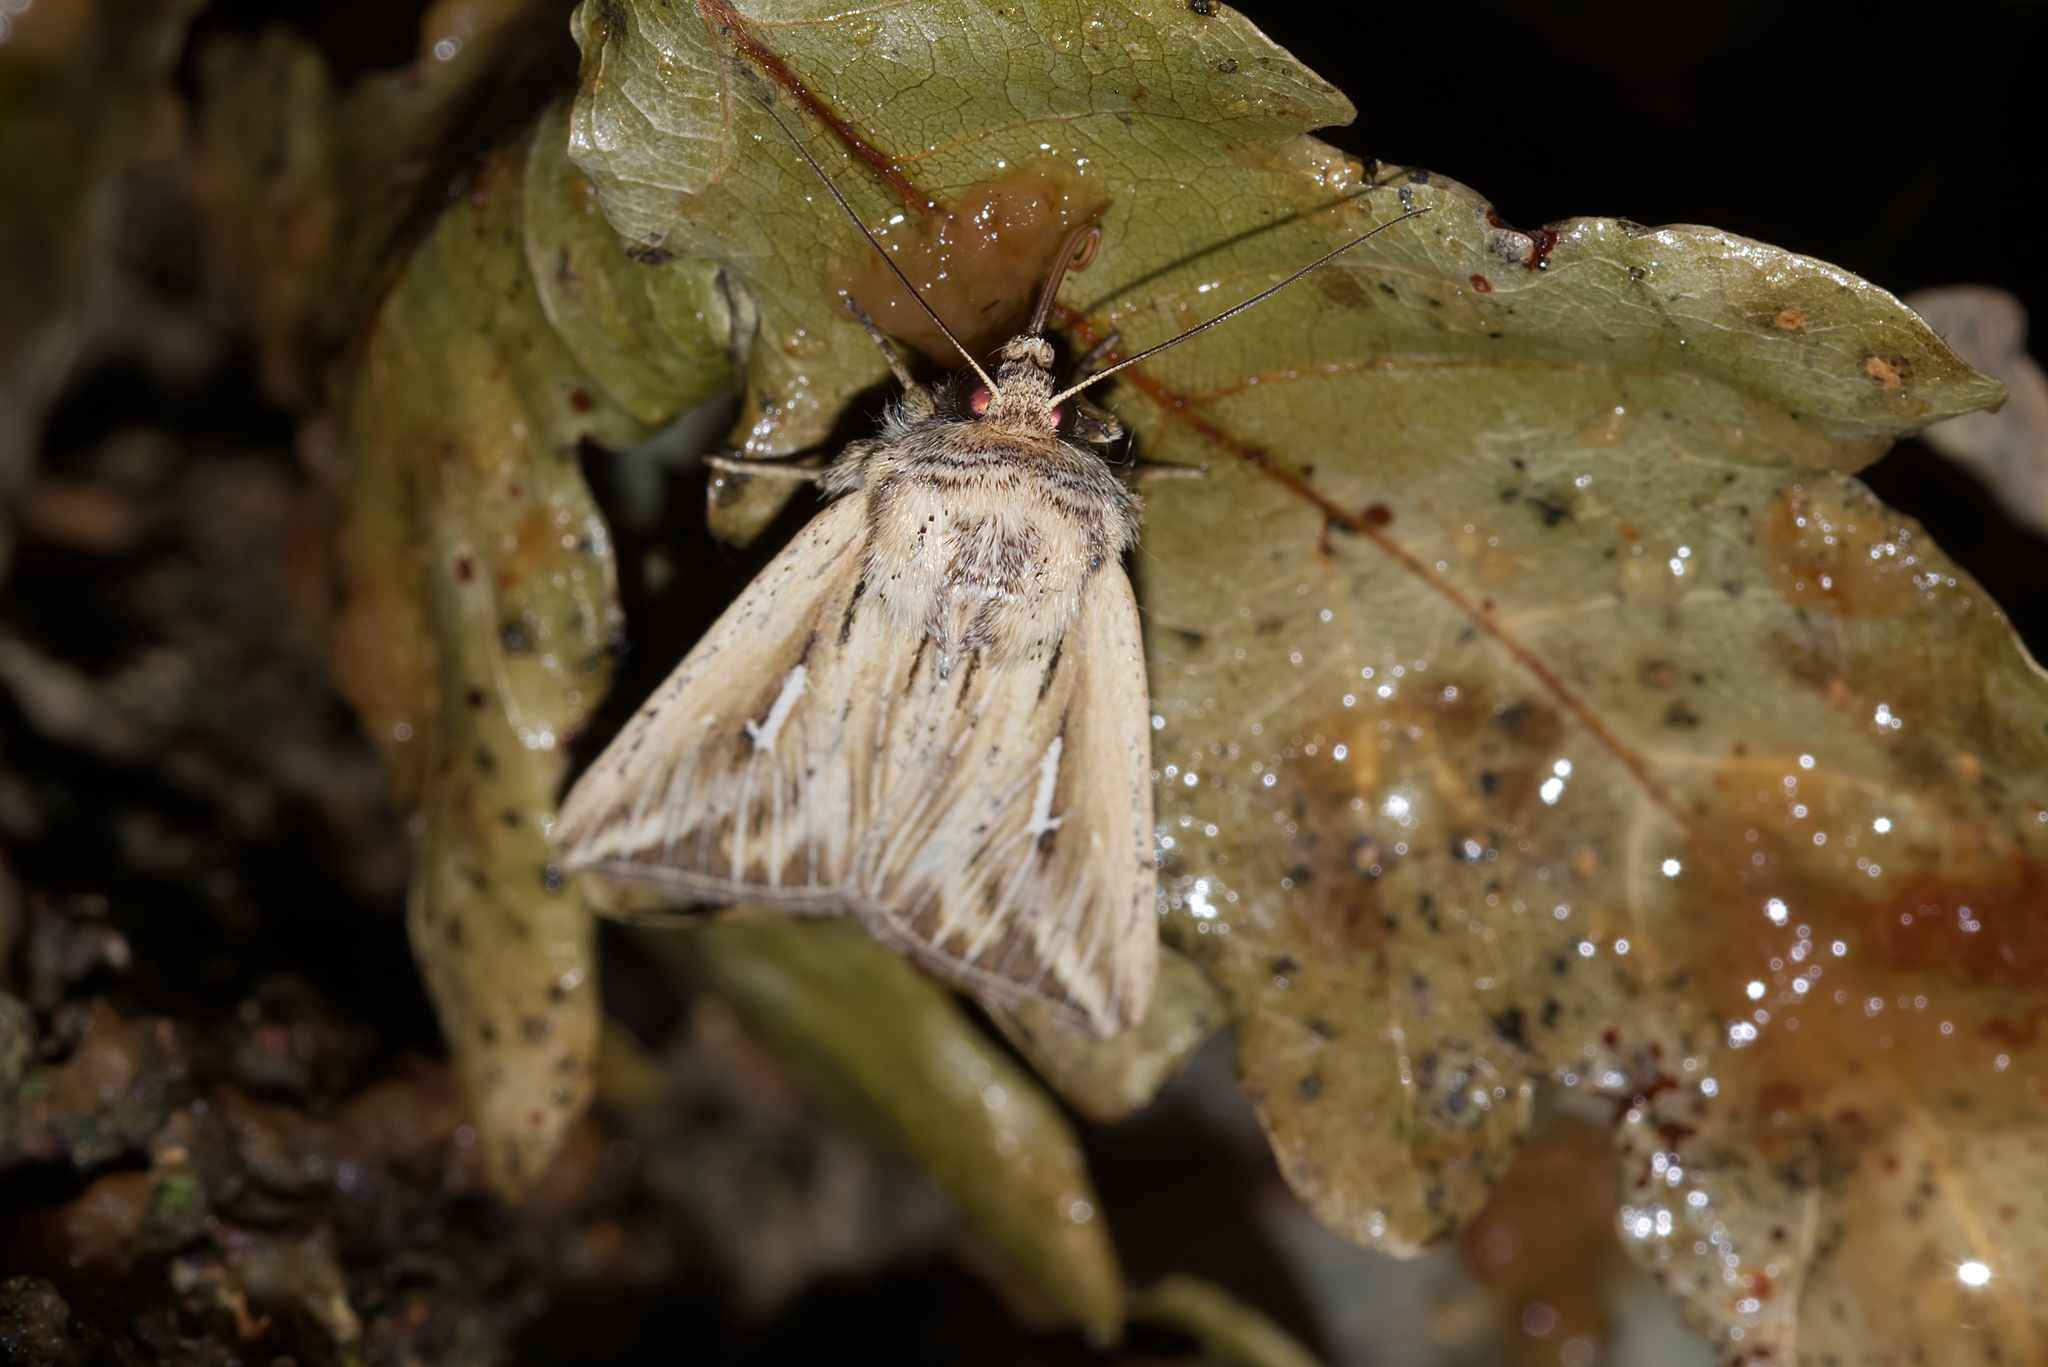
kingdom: Animalia
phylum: Arthropoda
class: Insecta
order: Lepidoptera
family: Noctuidae
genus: Mythimna
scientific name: Mythimna l-album
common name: L-album wainscot
